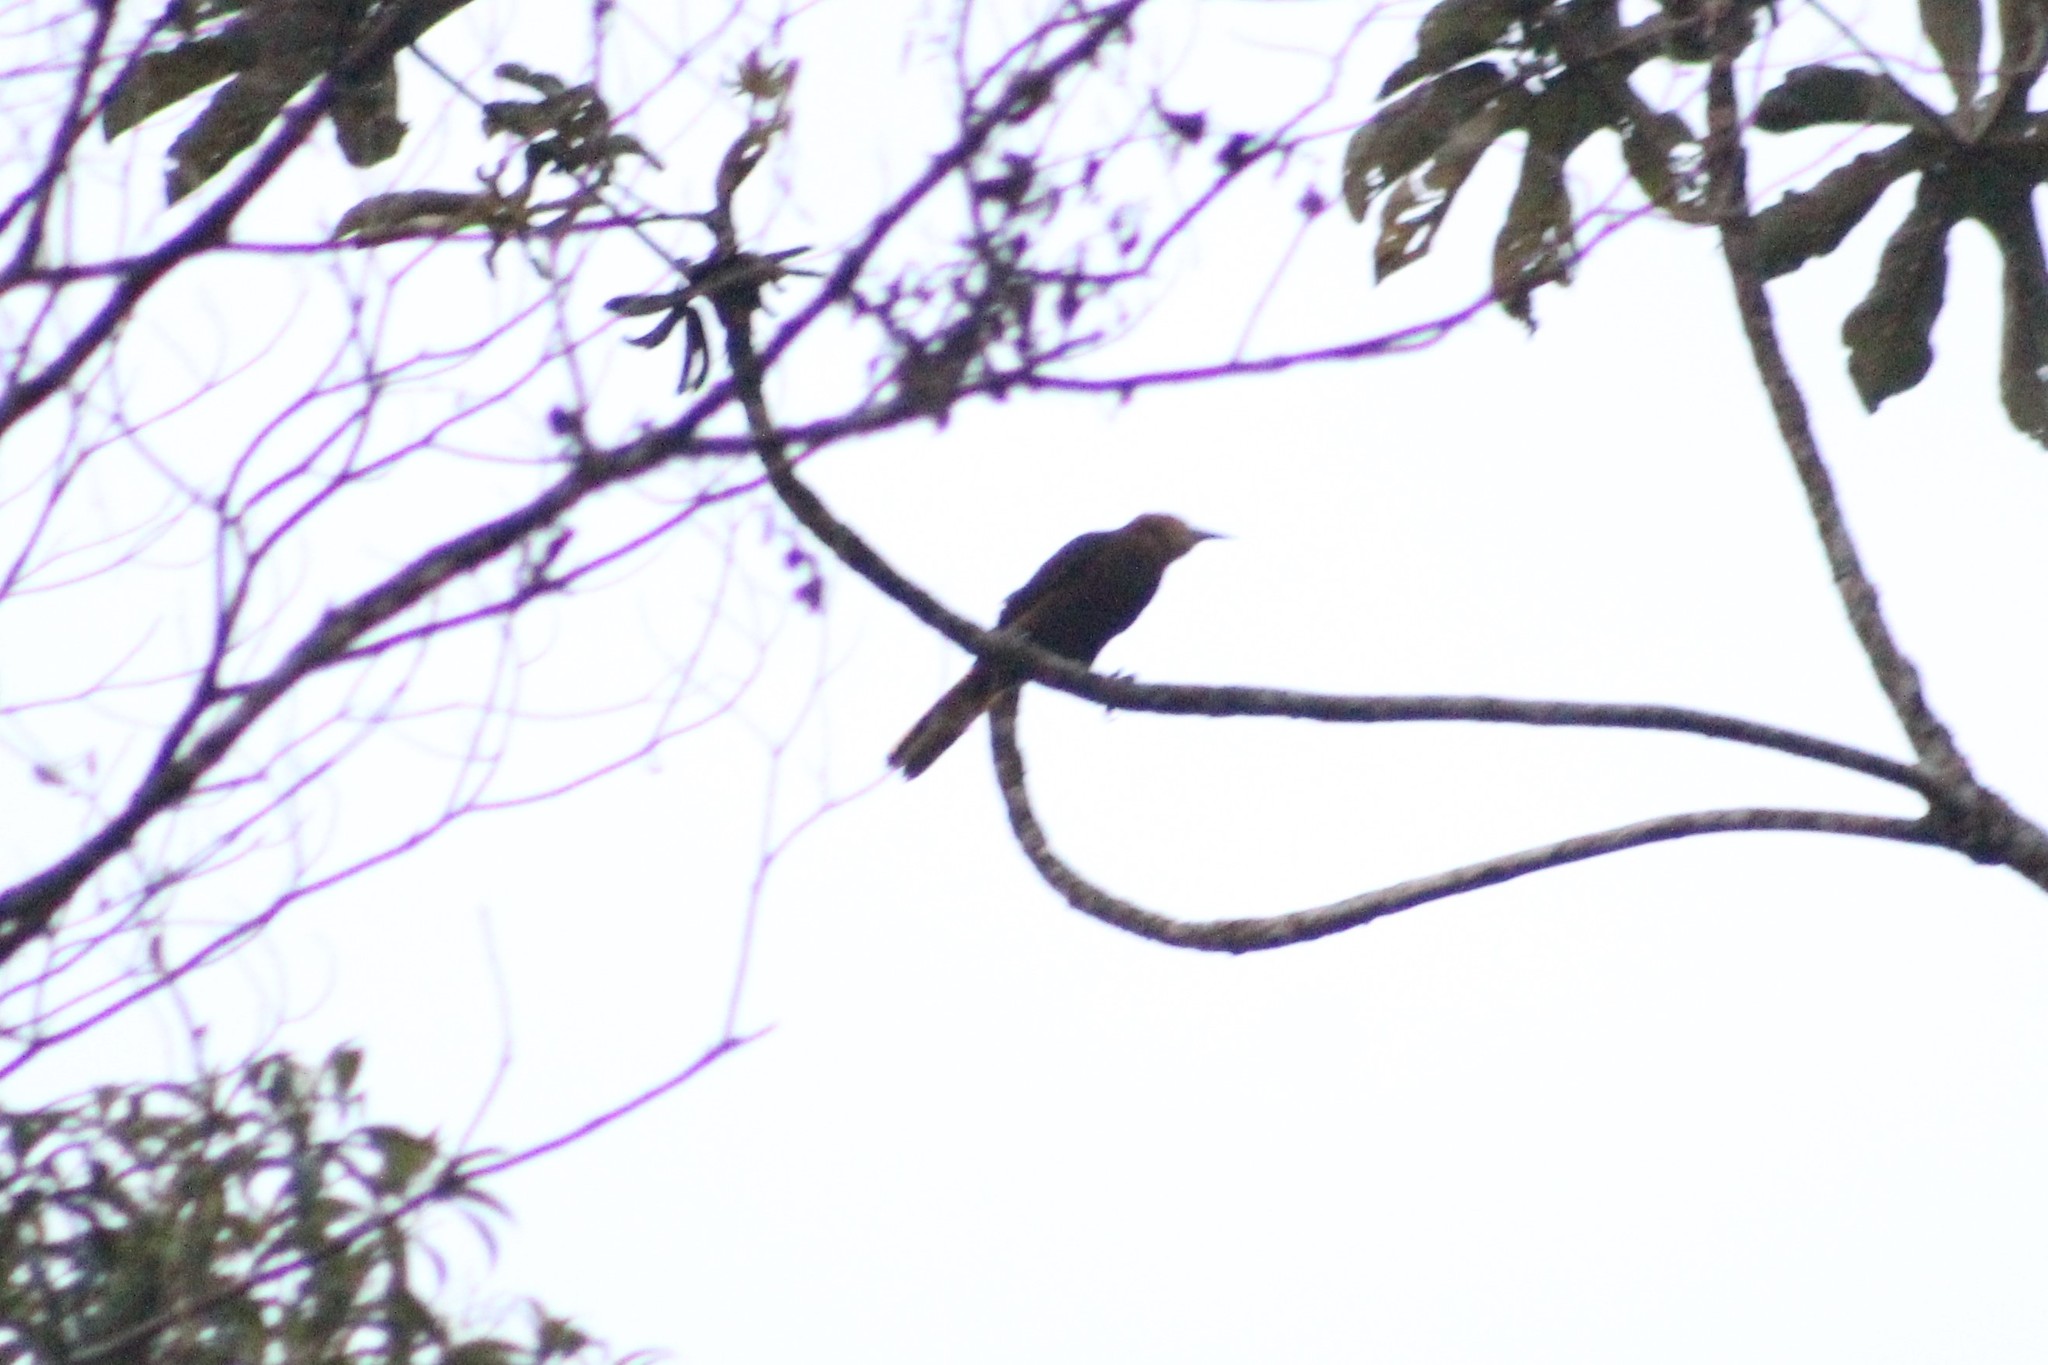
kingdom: Animalia
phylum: Chordata
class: Aves
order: Passeriformes
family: Icteridae
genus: Psarocolius
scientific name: Psarocolius angustifrons
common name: Russet-backed oropendola
